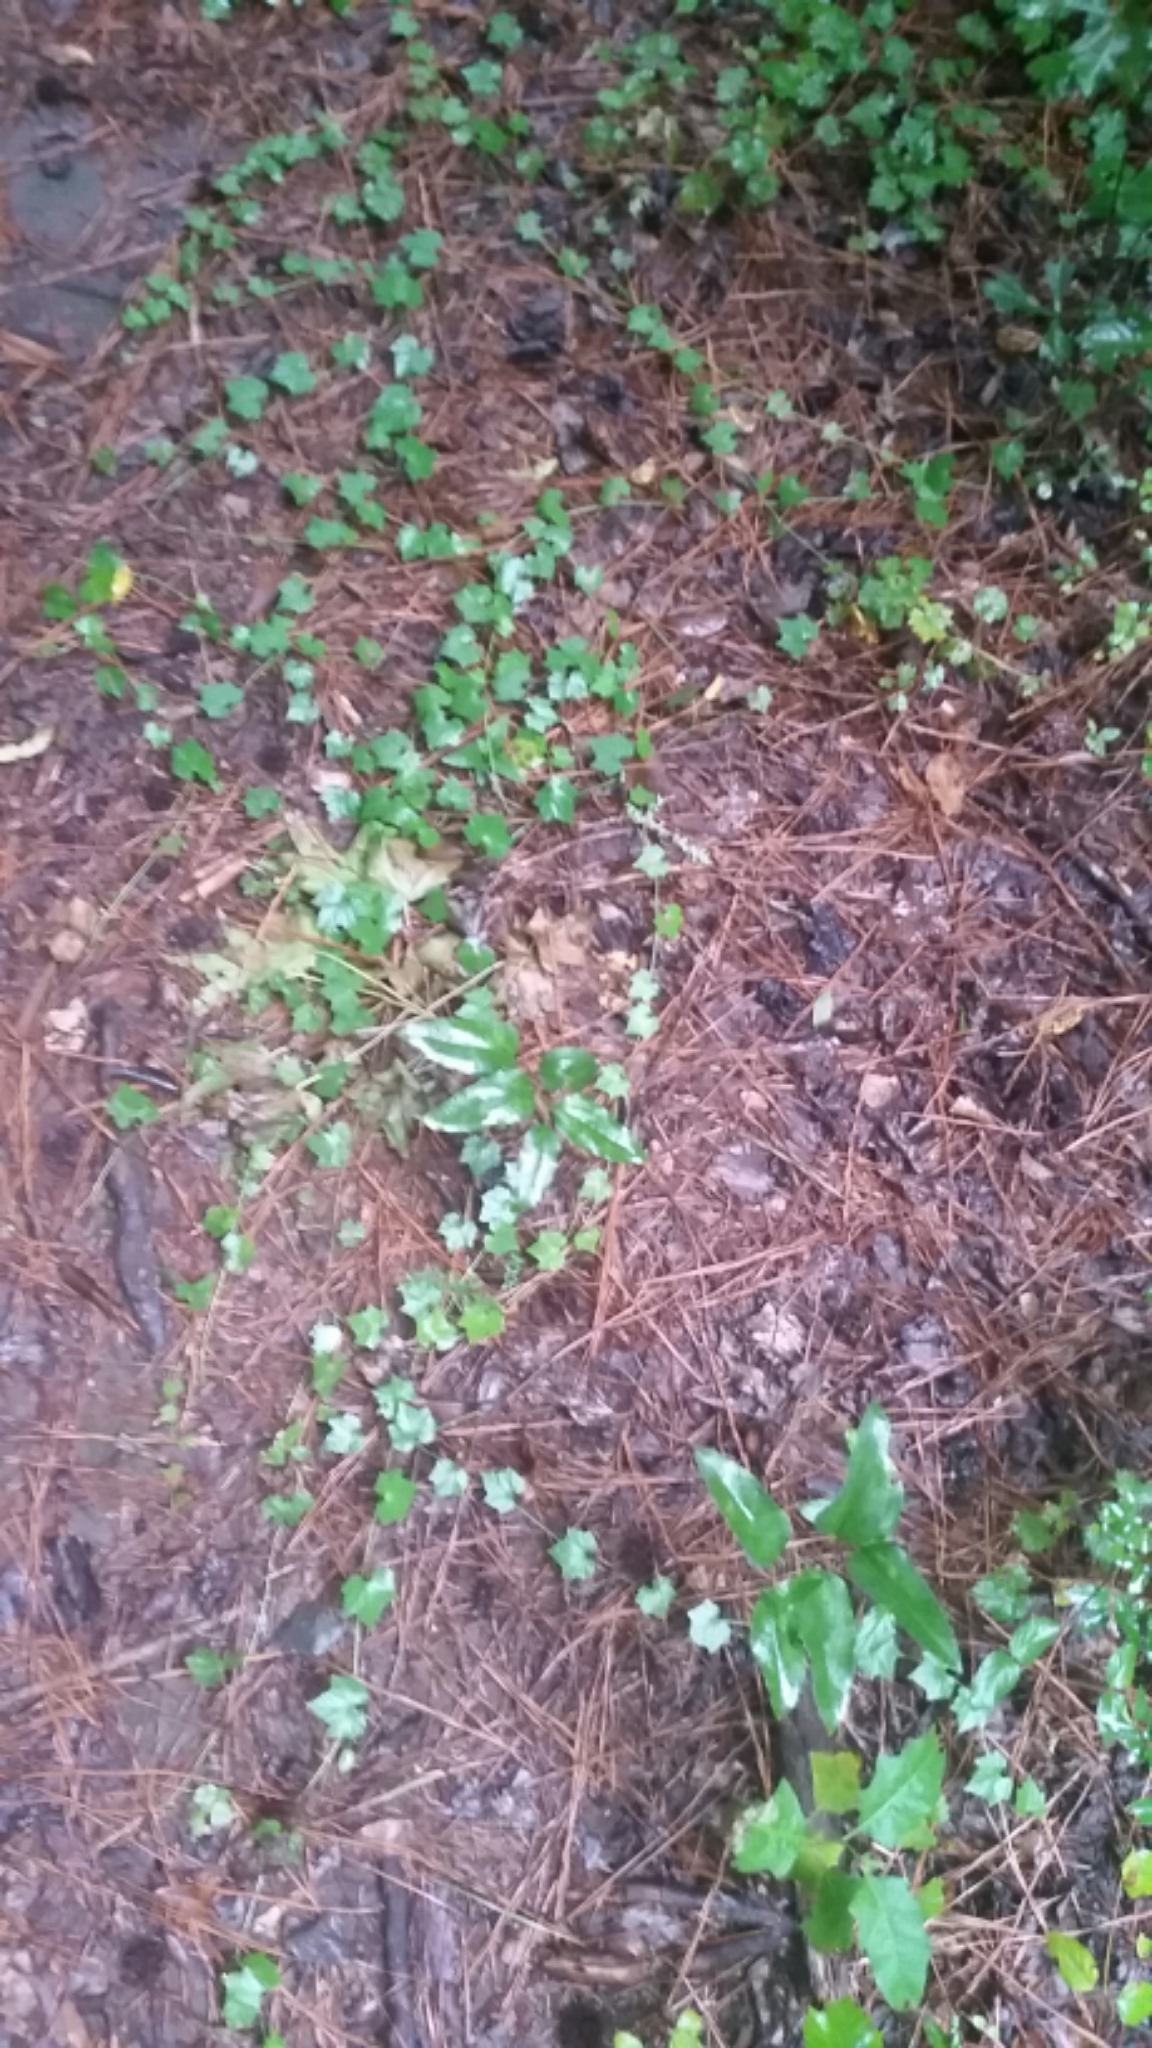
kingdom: Plantae
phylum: Tracheophyta
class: Magnoliopsida
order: Cucurbitales
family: Cucurbitaceae
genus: Melothria
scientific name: Melothria pendula
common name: Creeping-cucumber
